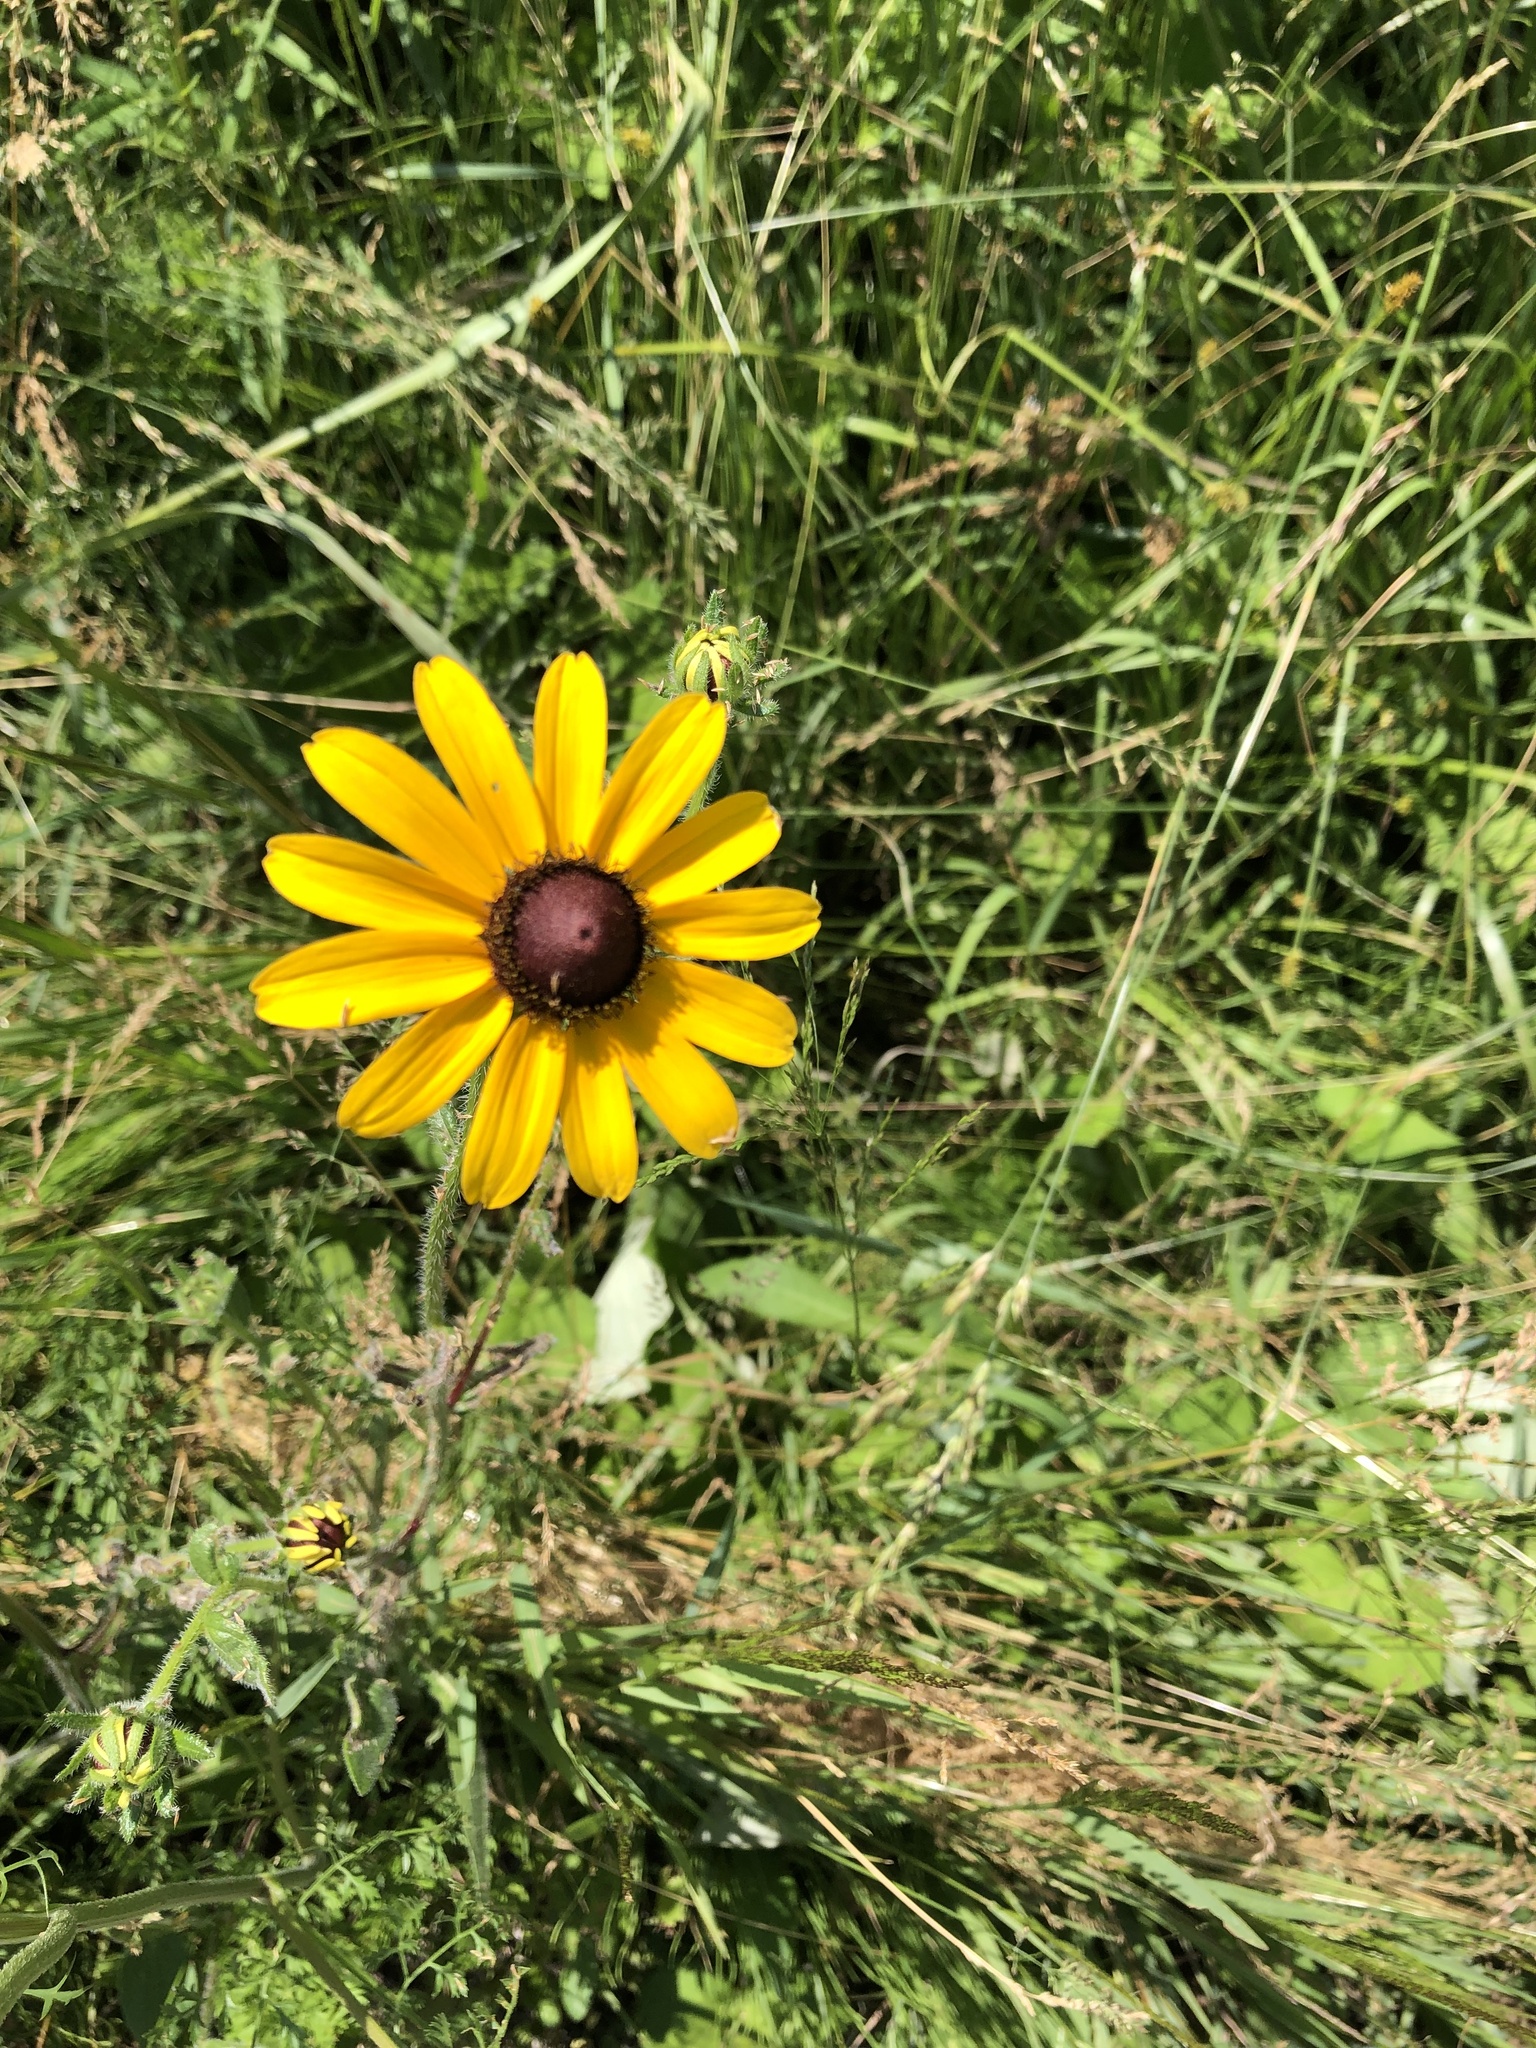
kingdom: Plantae
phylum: Tracheophyta
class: Magnoliopsida
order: Asterales
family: Asteraceae
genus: Rudbeckia
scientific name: Rudbeckia hirta
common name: Black-eyed-susan
